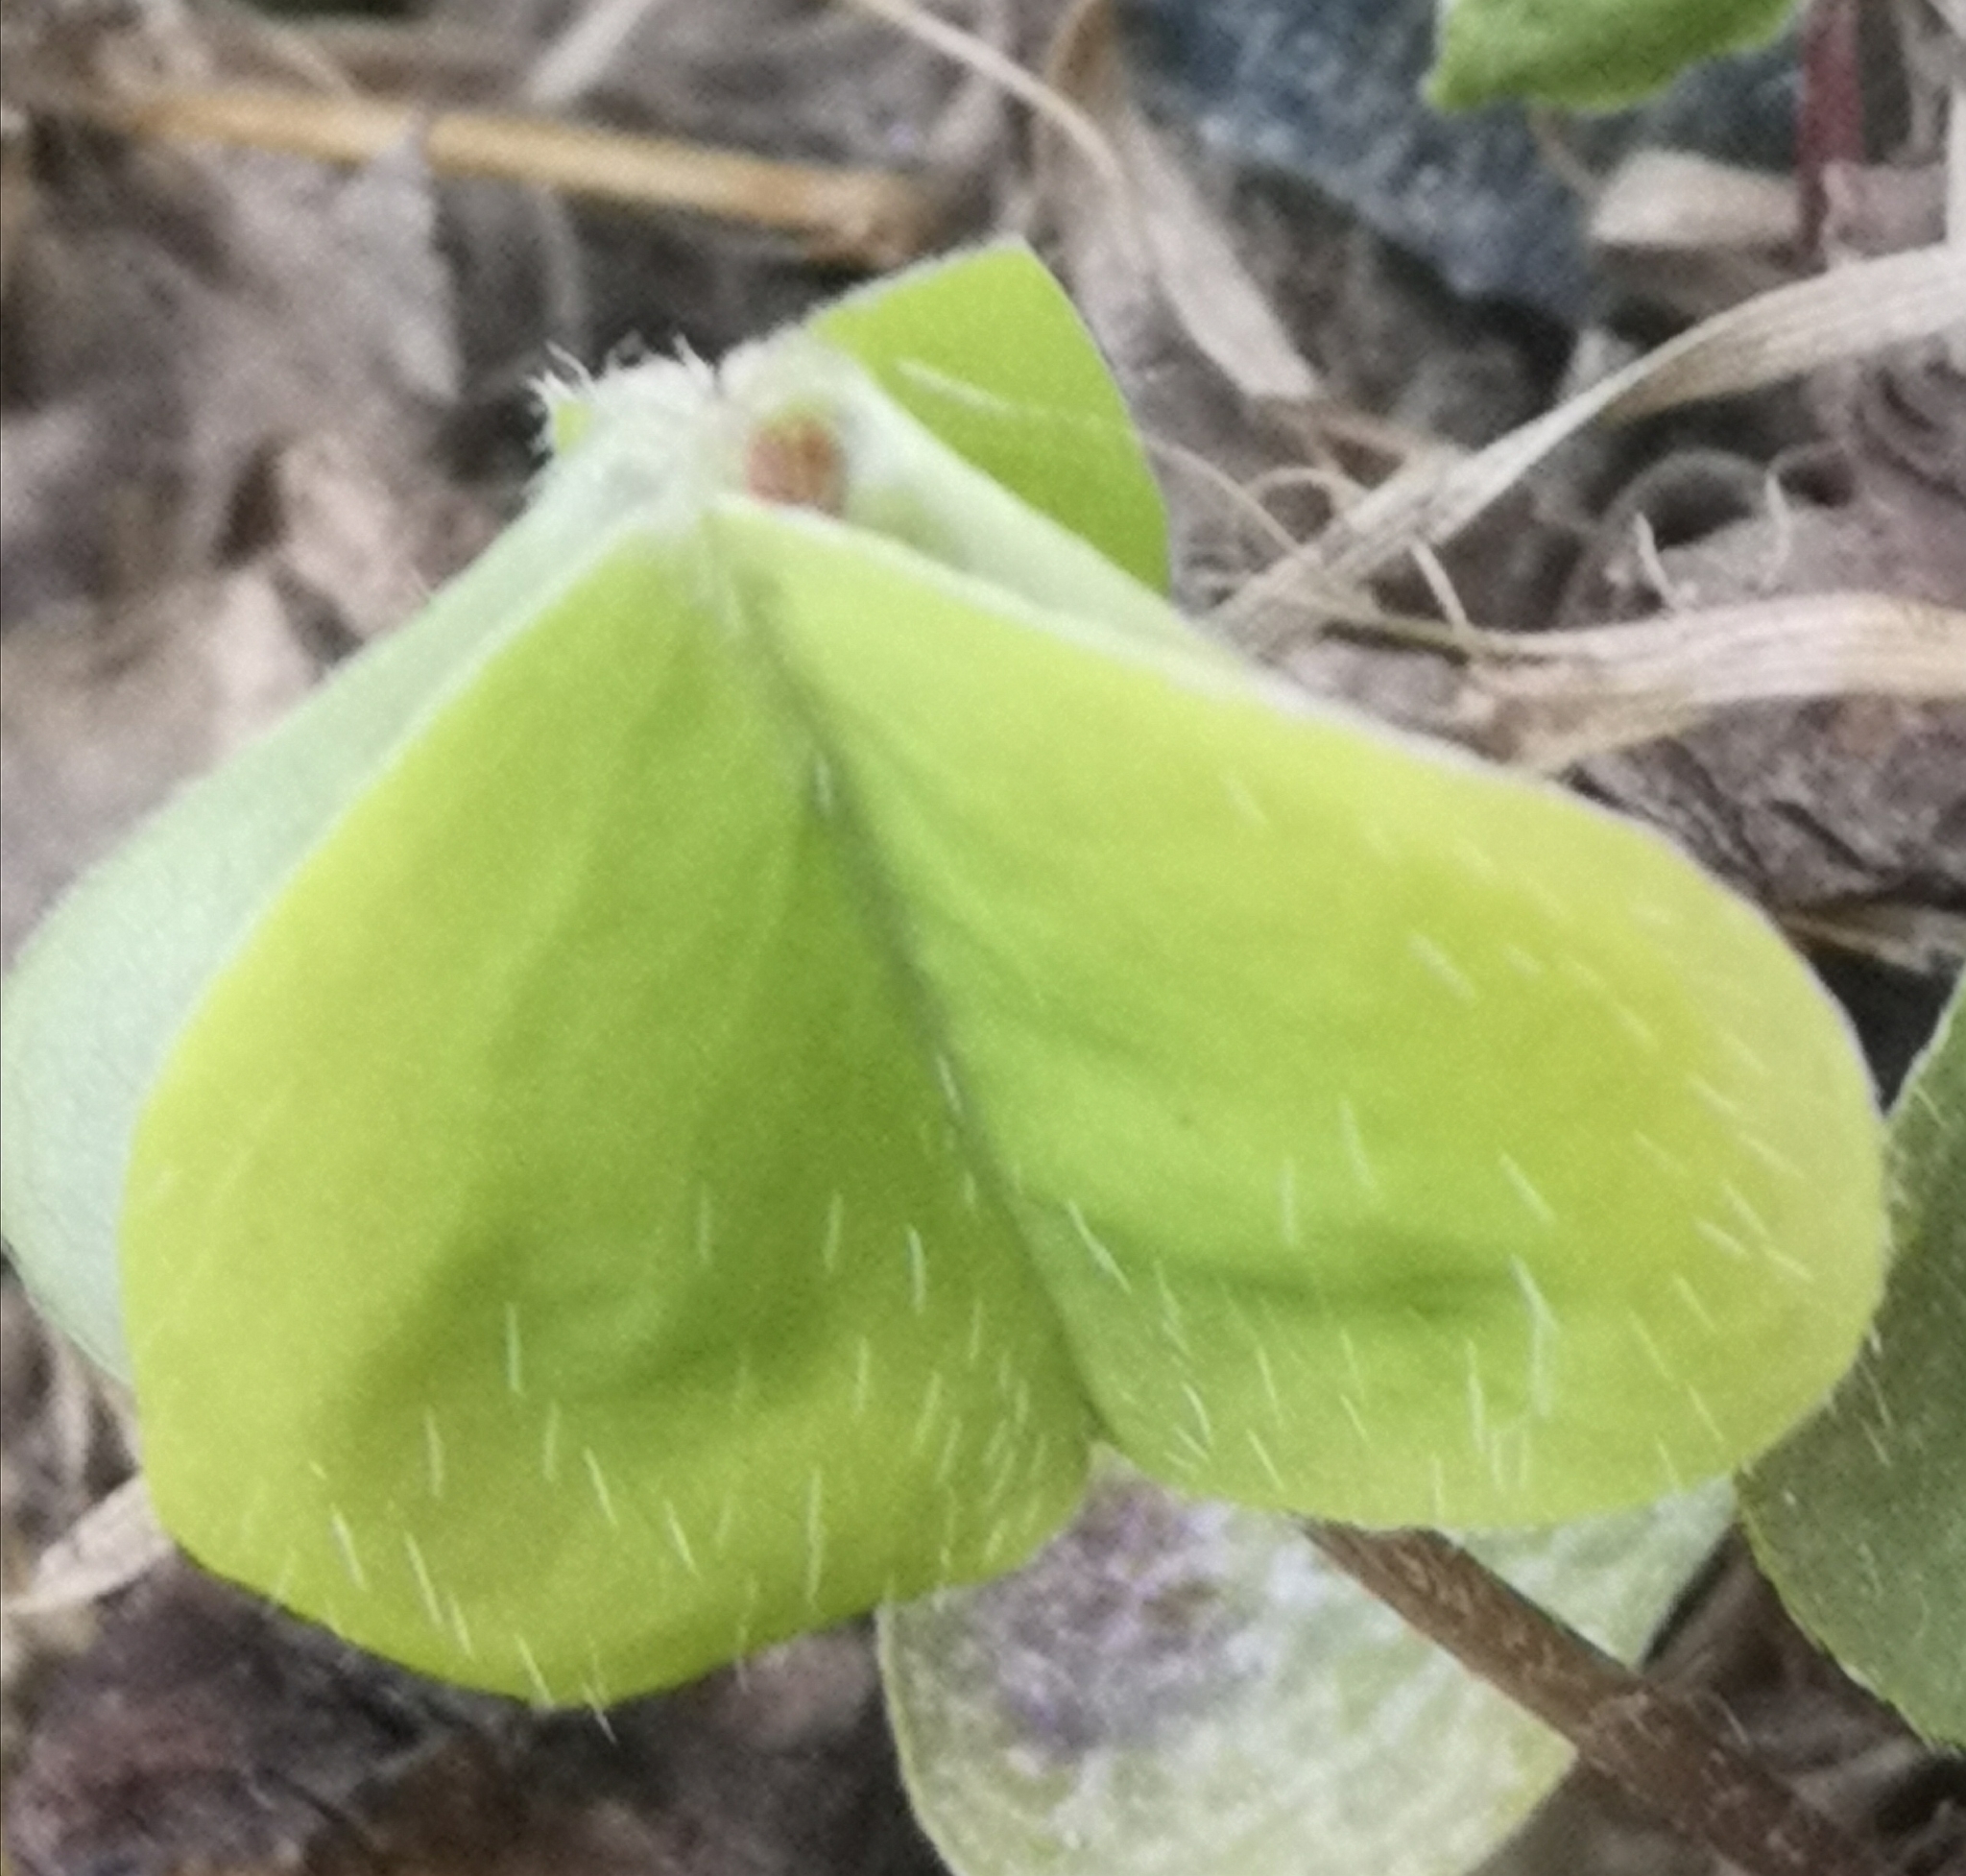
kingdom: Plantae
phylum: Tracheophyta
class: Magnoliopsida
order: Oxalidales
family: Oxalidaceae
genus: Oxalis
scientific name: Oxalis acetosella
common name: Wood-sorrel
